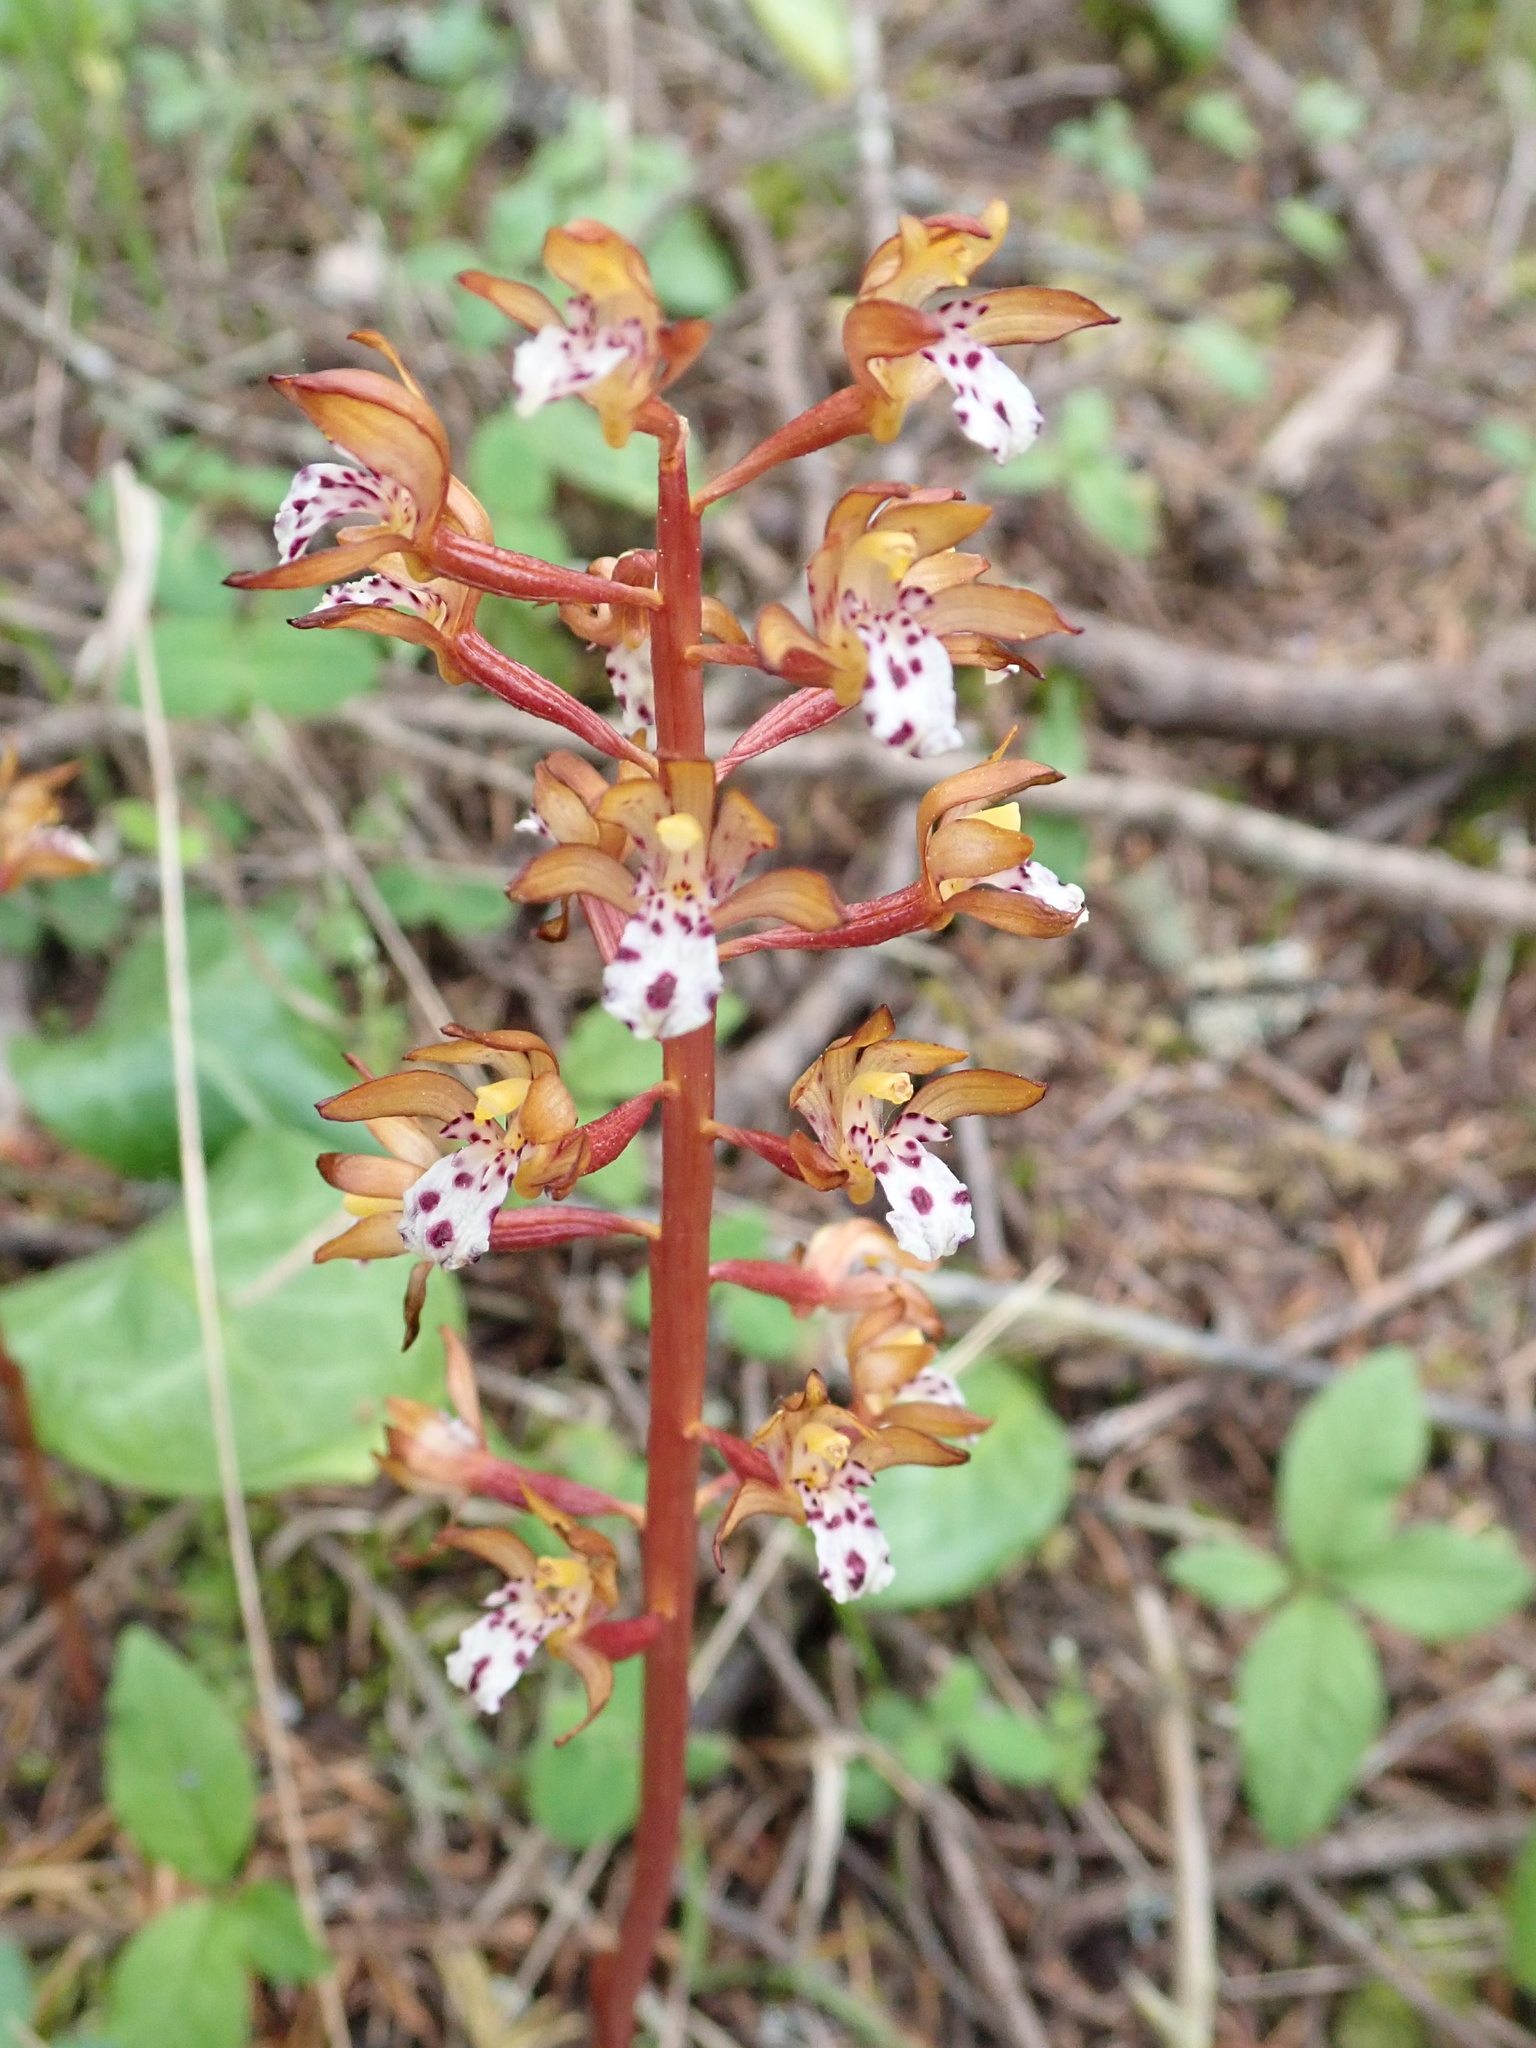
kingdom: Plantae
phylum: Tracheophyta
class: Liliopsida
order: Asparagales
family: Orchidaceae
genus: Corallorhiza
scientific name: Corallorhiza maculata
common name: Spotted coralroot
